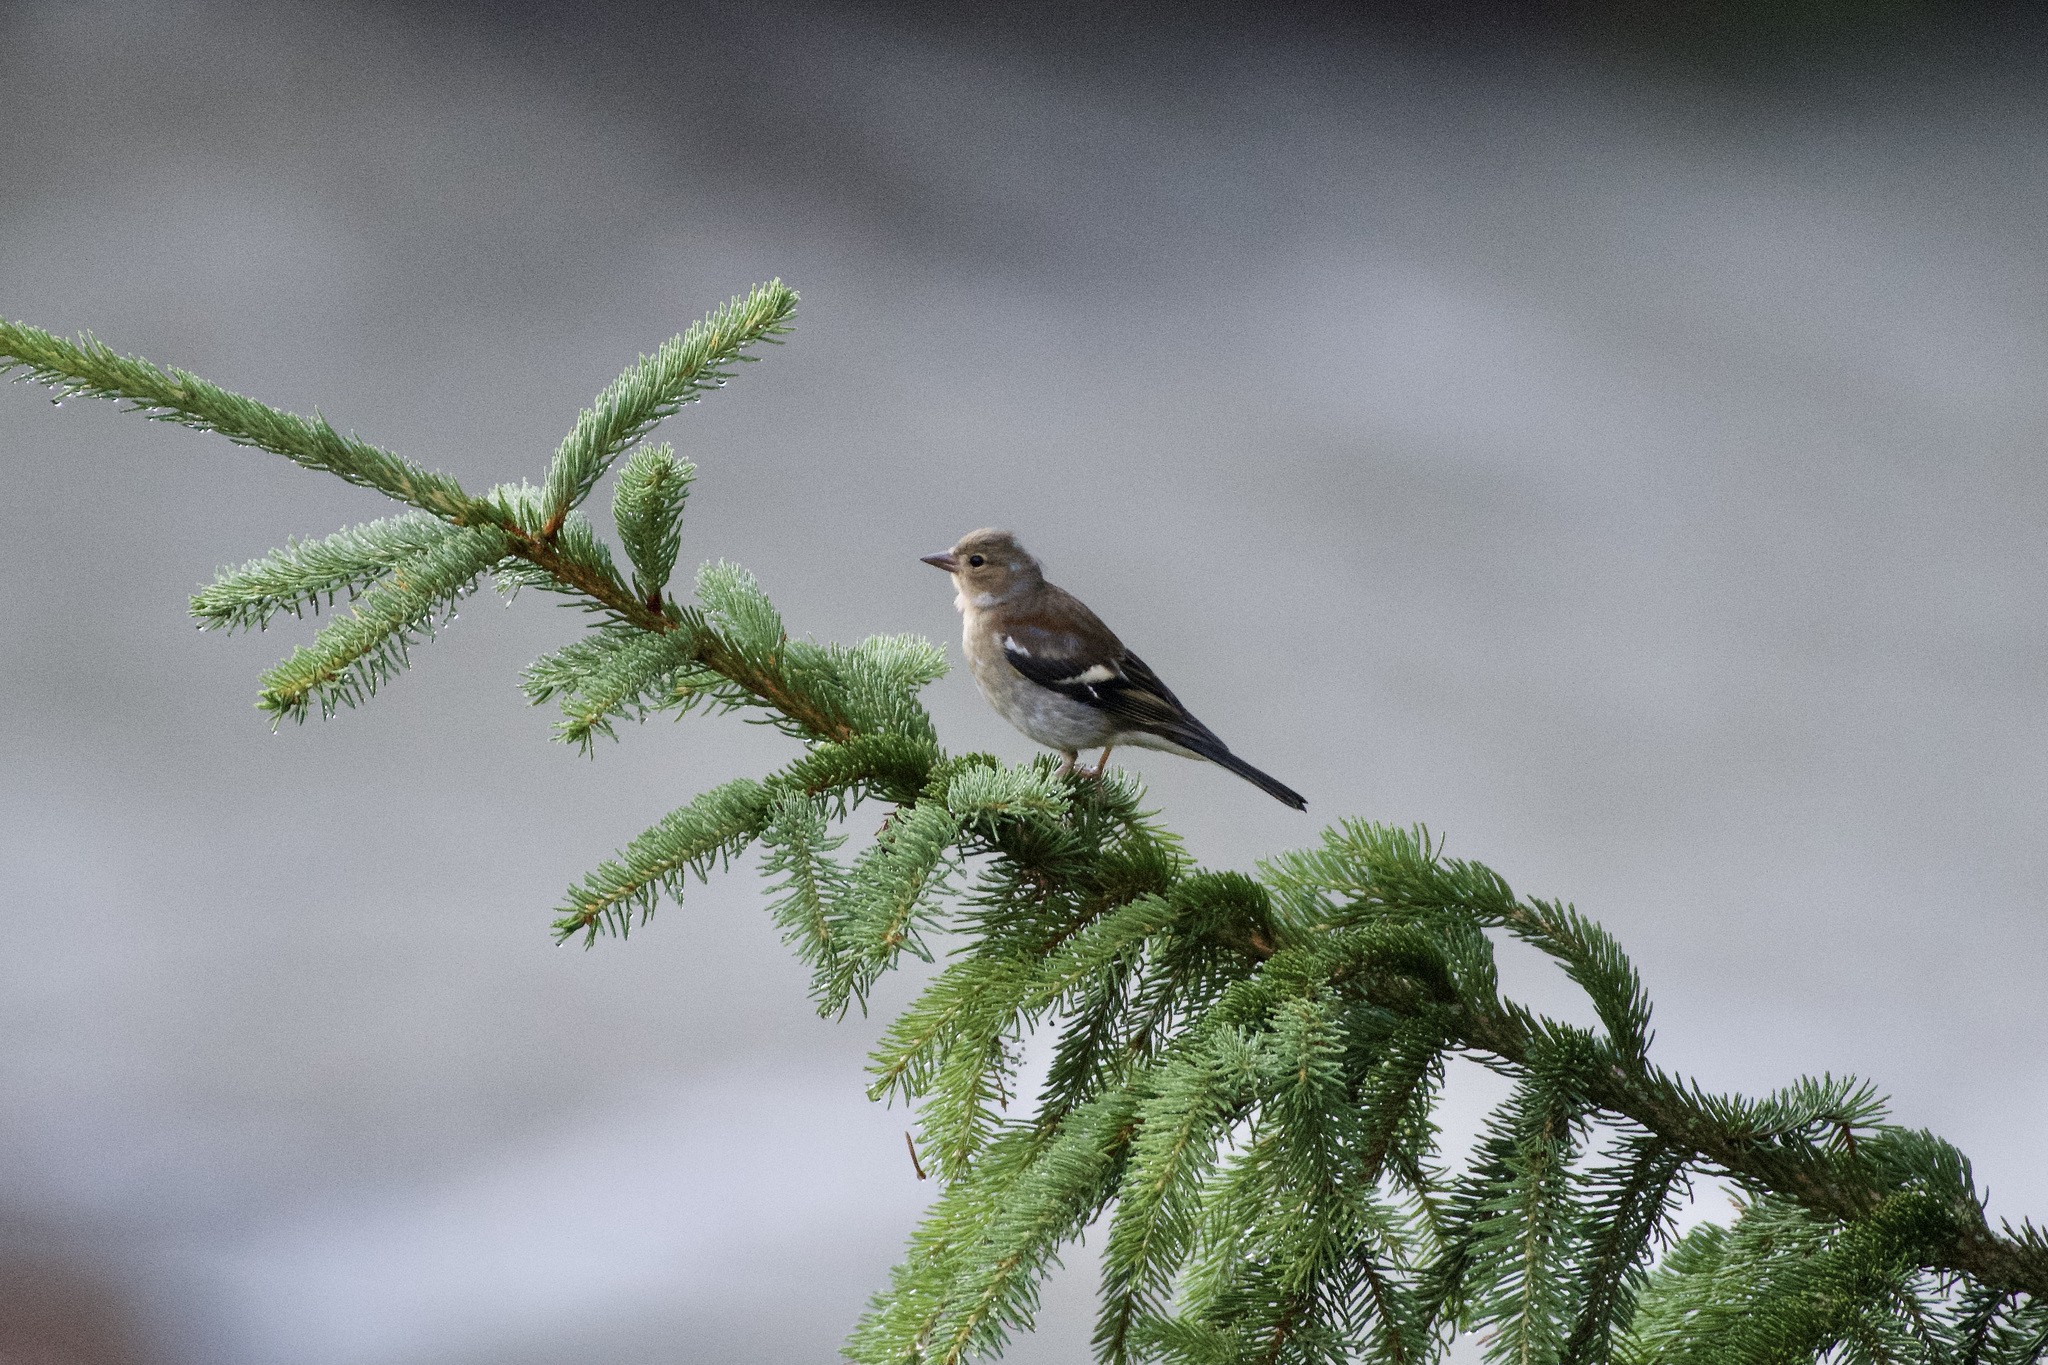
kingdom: Animalia
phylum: Chordata
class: Aves
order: Passeriformes
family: Fringillidae
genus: Fringilla
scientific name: Fringilla coelebs
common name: Common chaffinch
